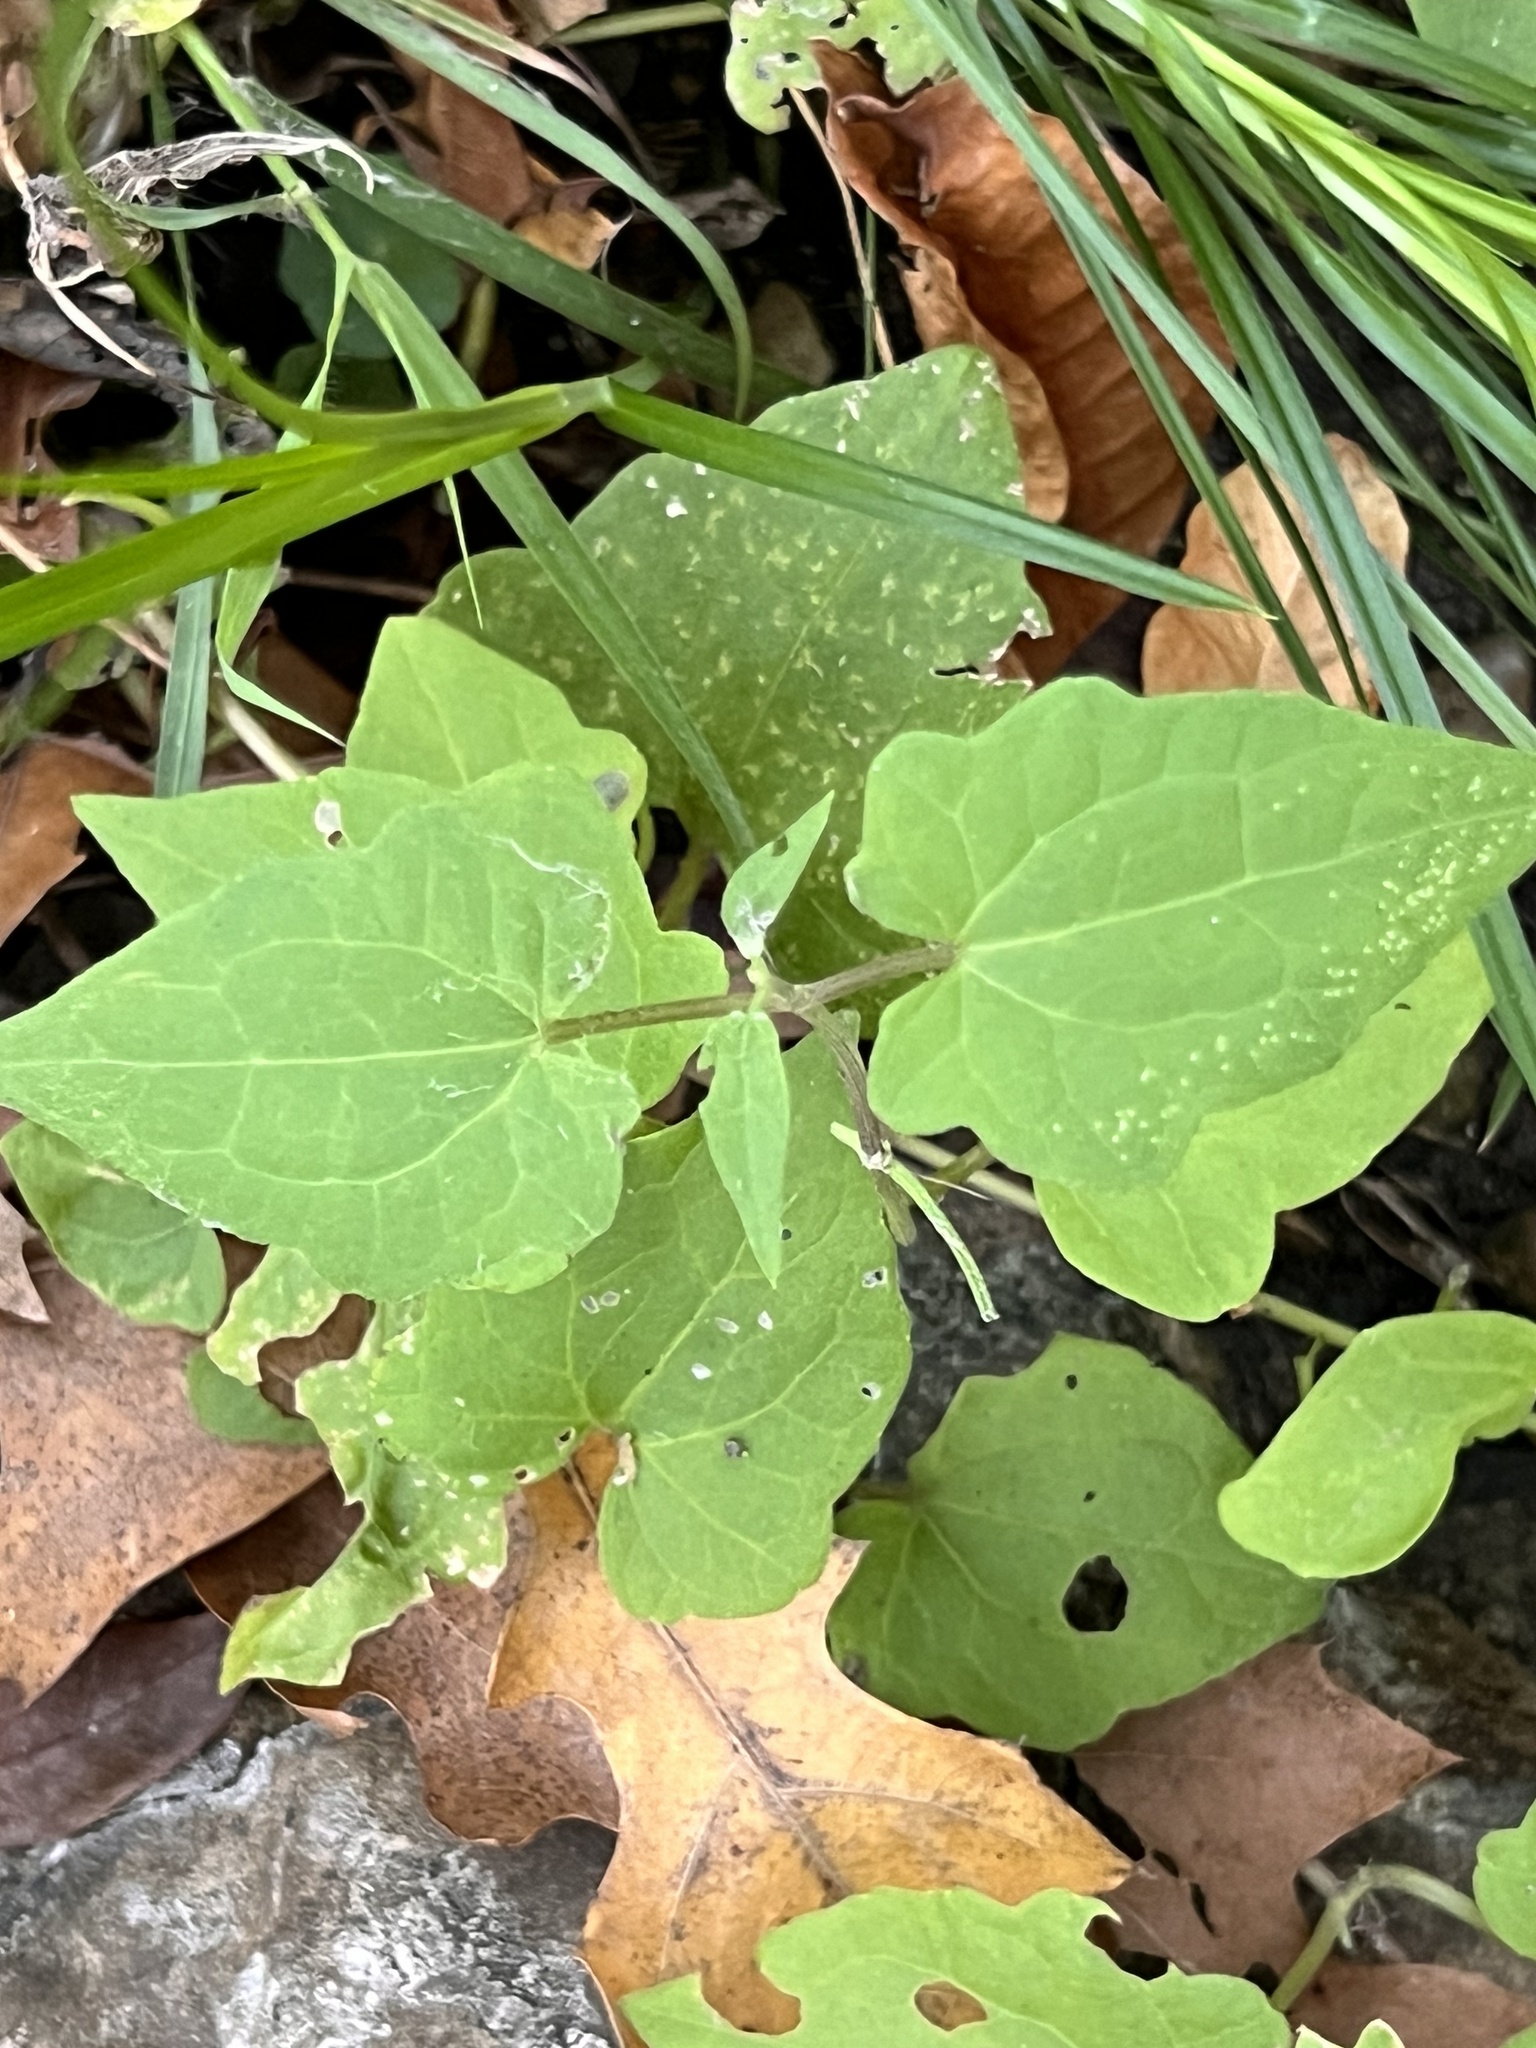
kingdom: Plantae
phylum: Tracheophyta
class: Magnoliopsida
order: Asterales
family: Asteraceae
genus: Mikania
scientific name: Mikania scandens
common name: Climbing hempvine
